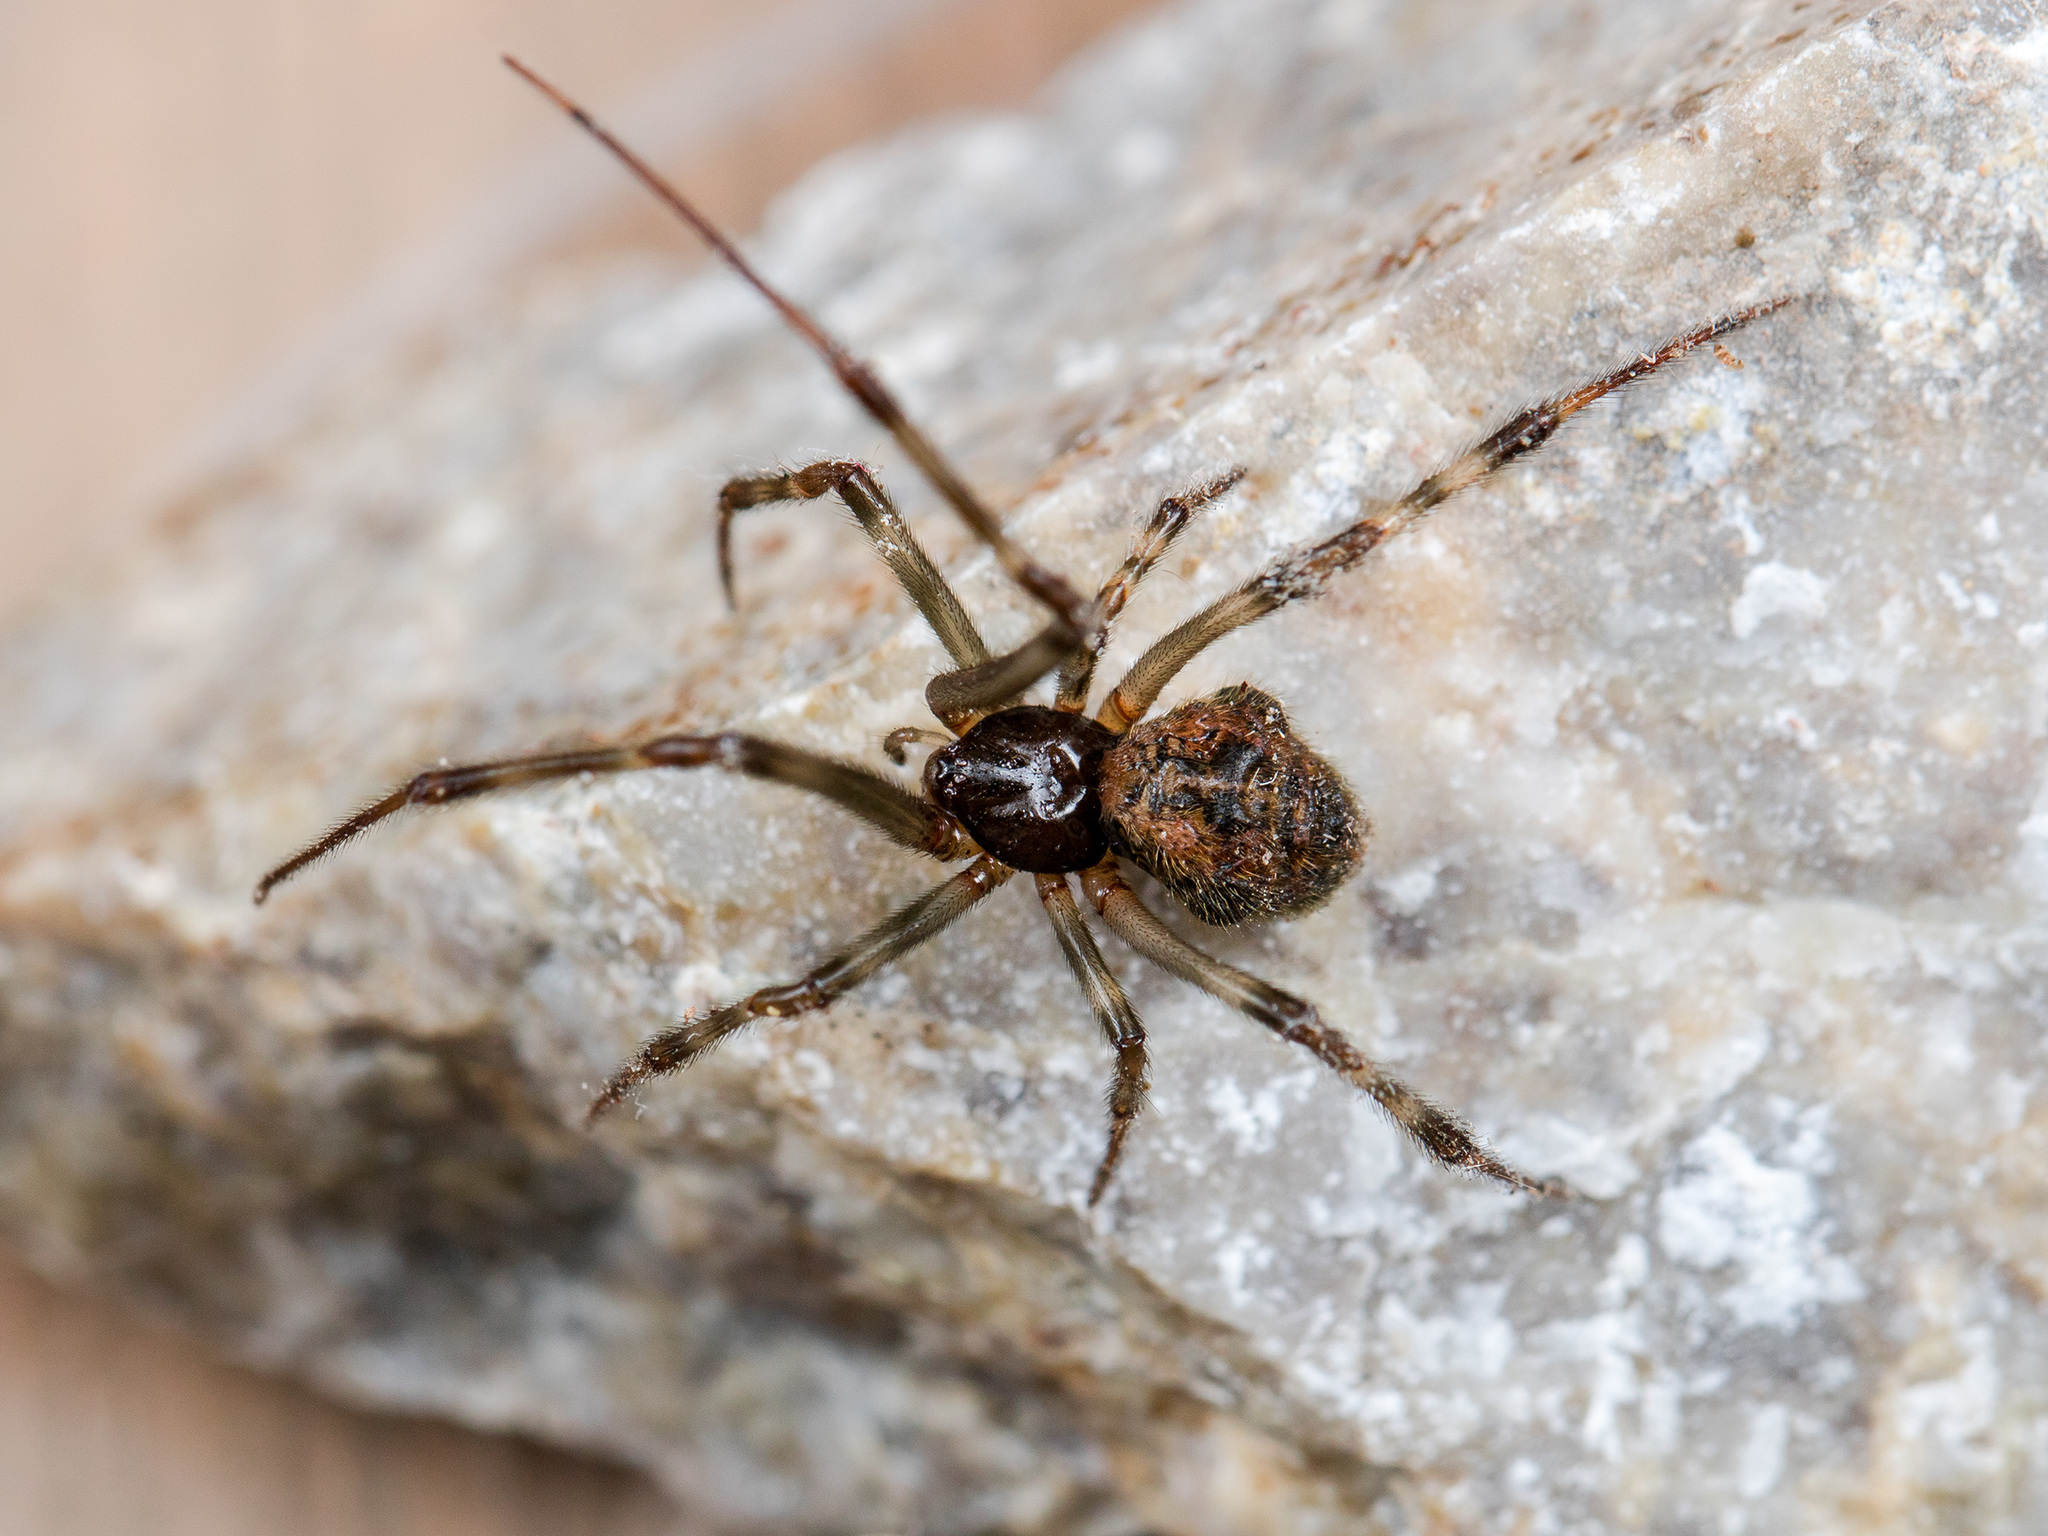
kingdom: Animalia
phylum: Arthropoda
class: Arachnida
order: Araneae
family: Theridiidae
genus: Parasteatoda
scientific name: Parasteatoda tepidariorum
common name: Common house spider
